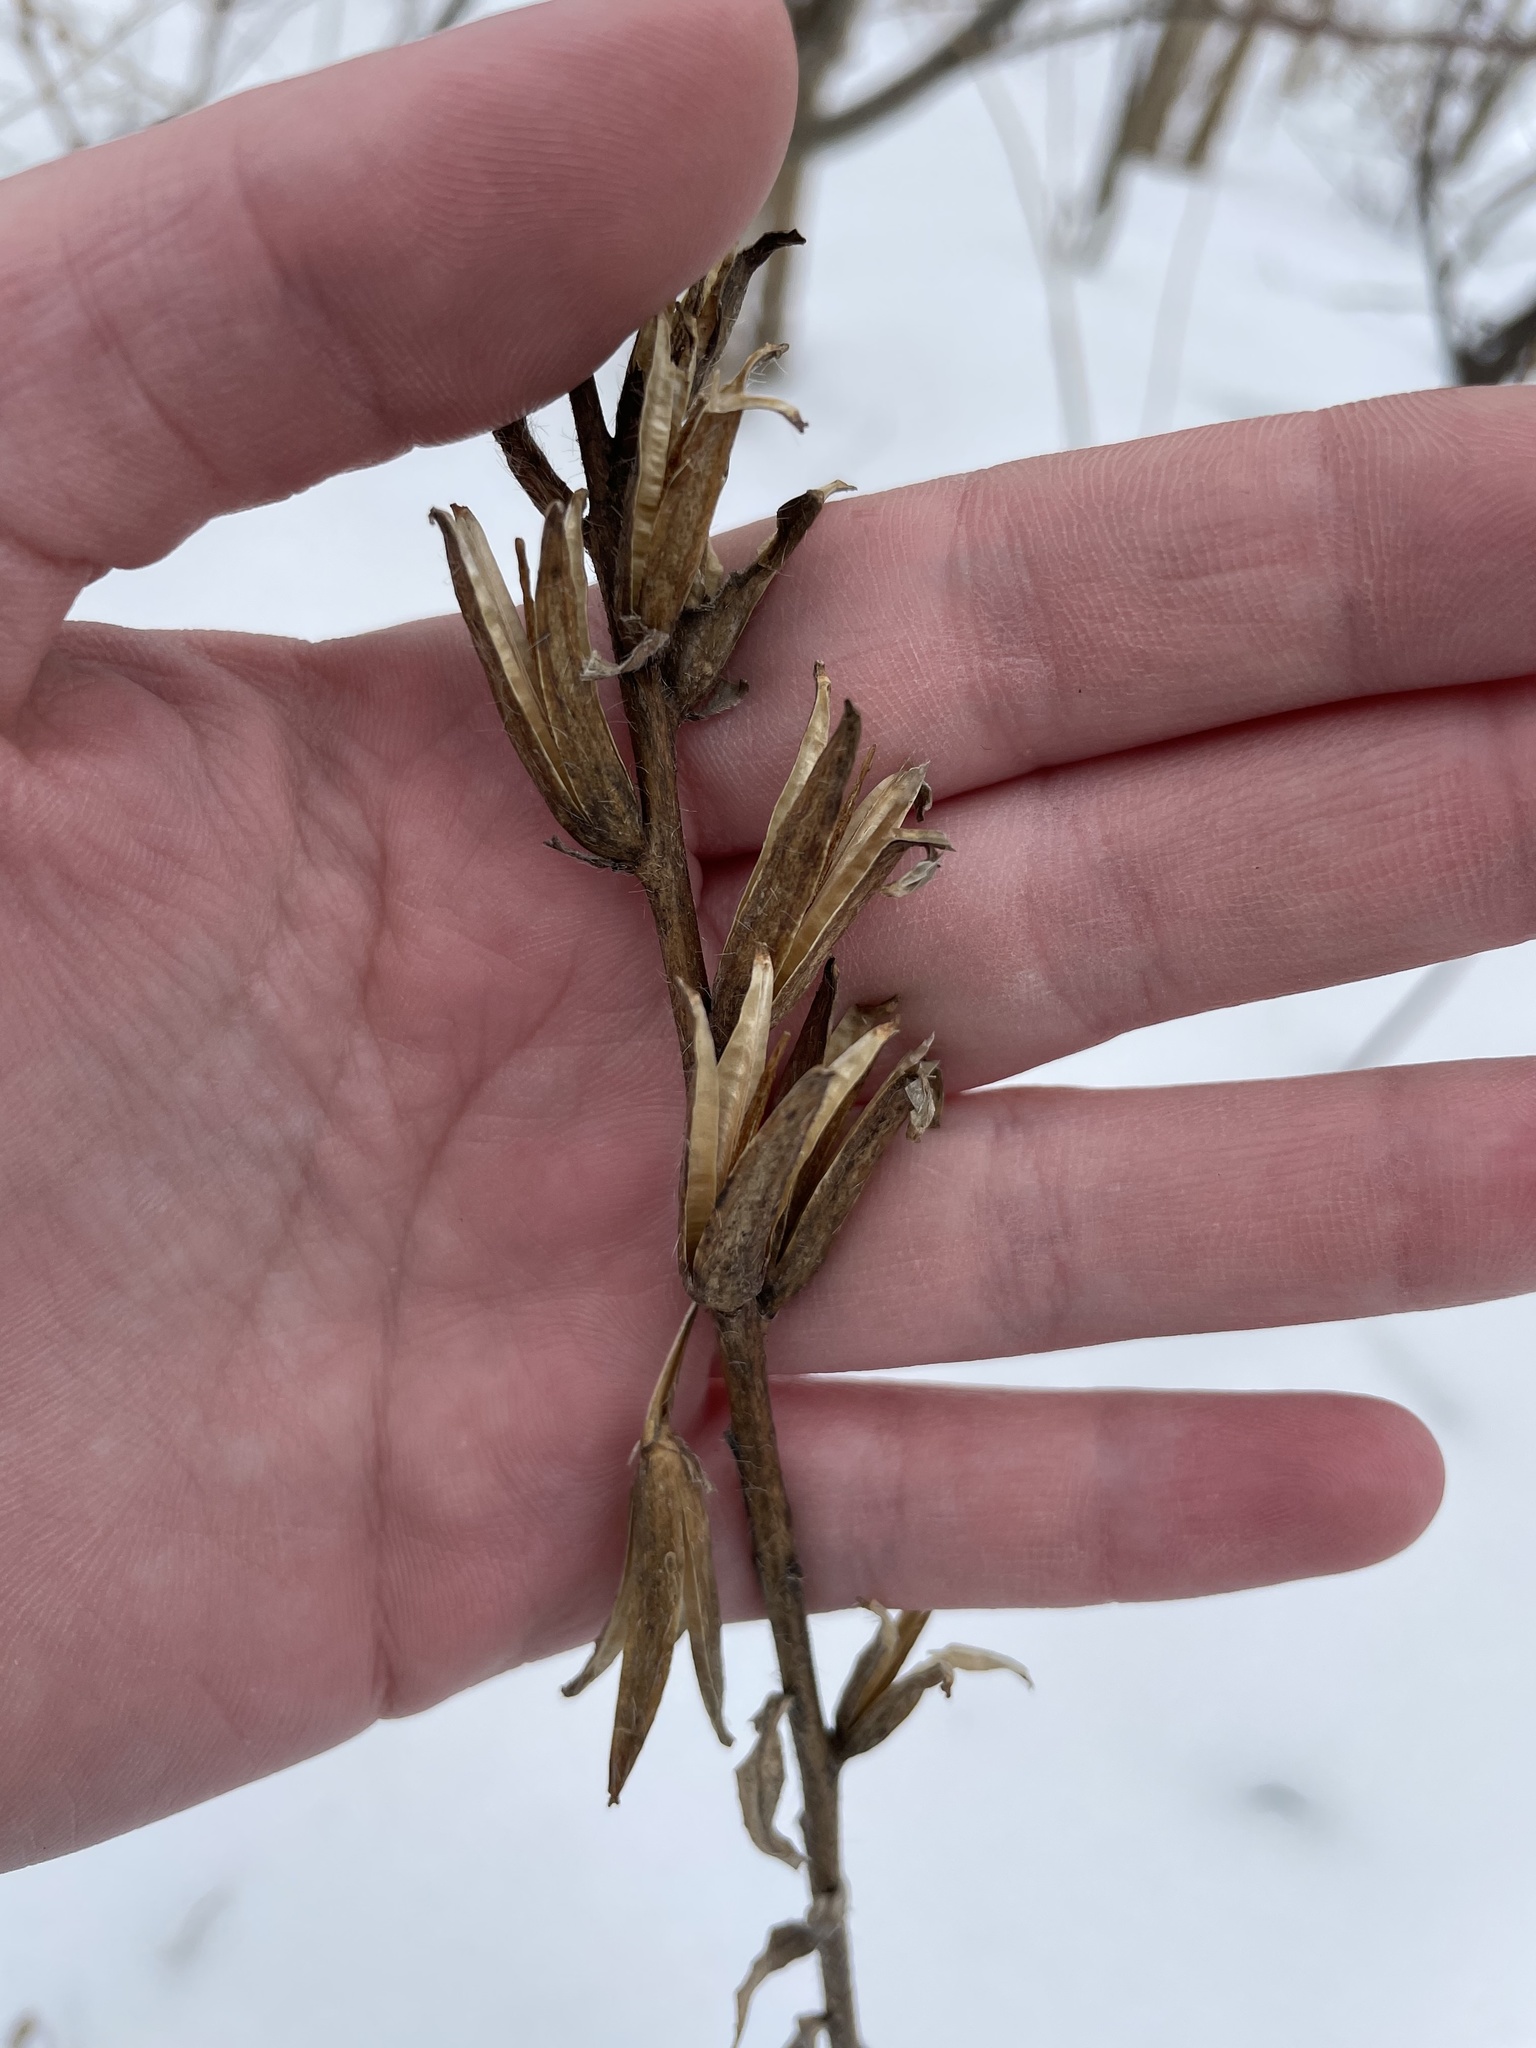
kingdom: Plantae
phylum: Tracheophyta
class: Magnoliopsida
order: Myrtales
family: Onagraceae
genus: Oenothera
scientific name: Oenothera biennis
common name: Common evening-primrose
